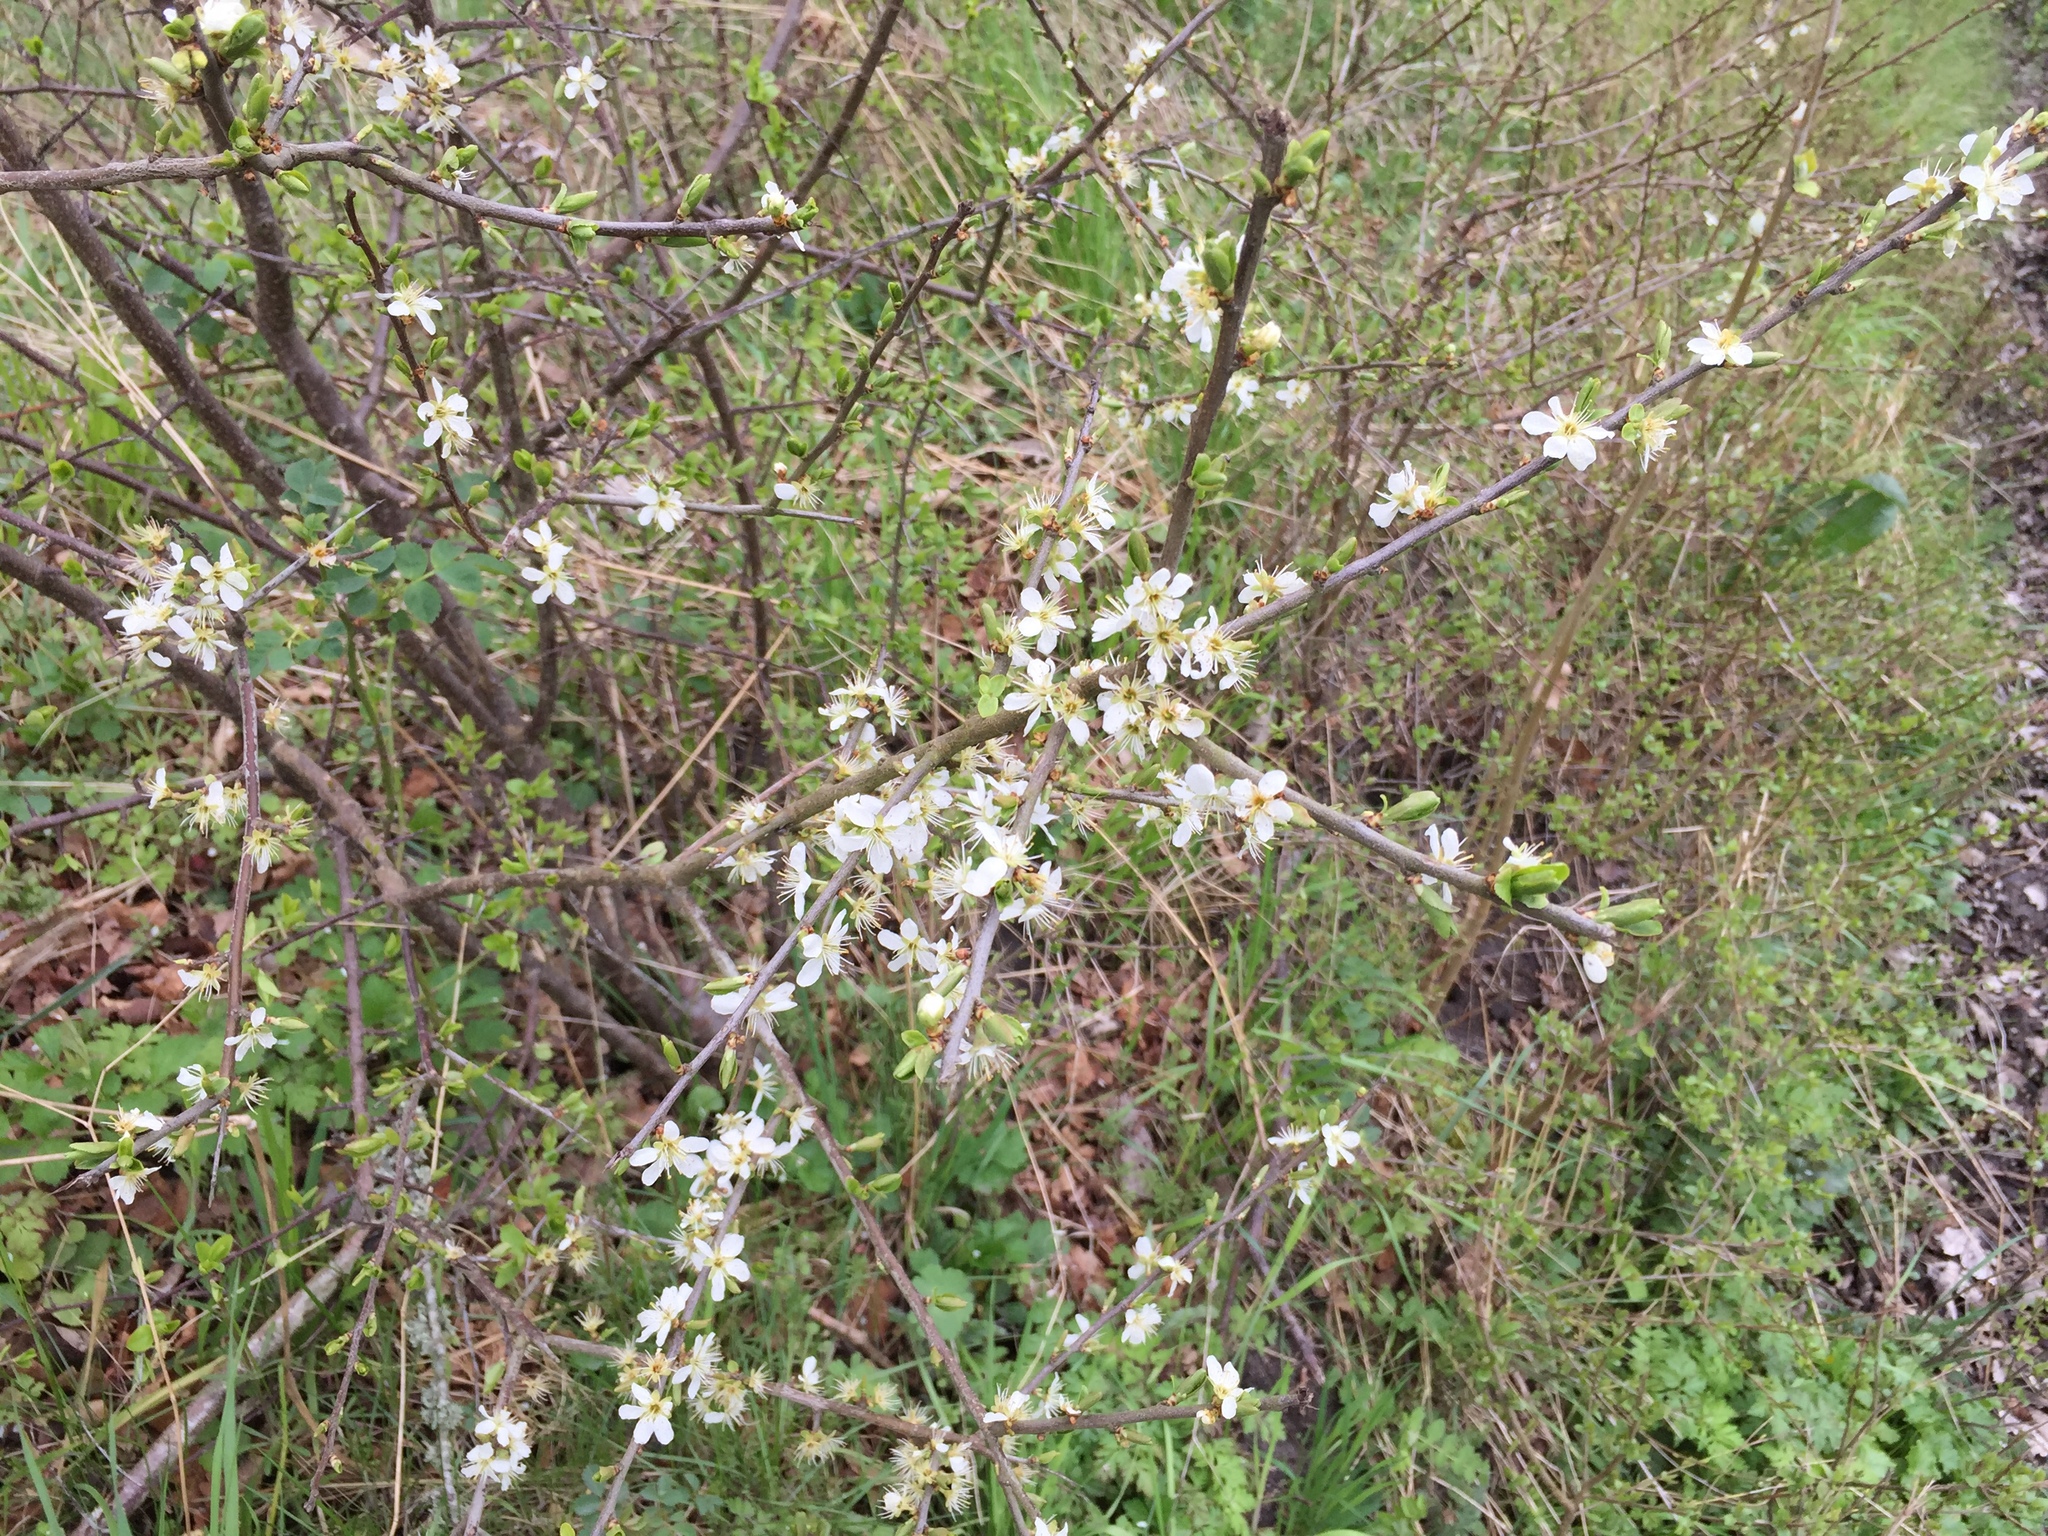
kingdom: Plantae
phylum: Tracheophyta
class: Magnoliopsida
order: Rosales
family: Rosaceae
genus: Prunus
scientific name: Prunus spinosa
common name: Blackthorn
